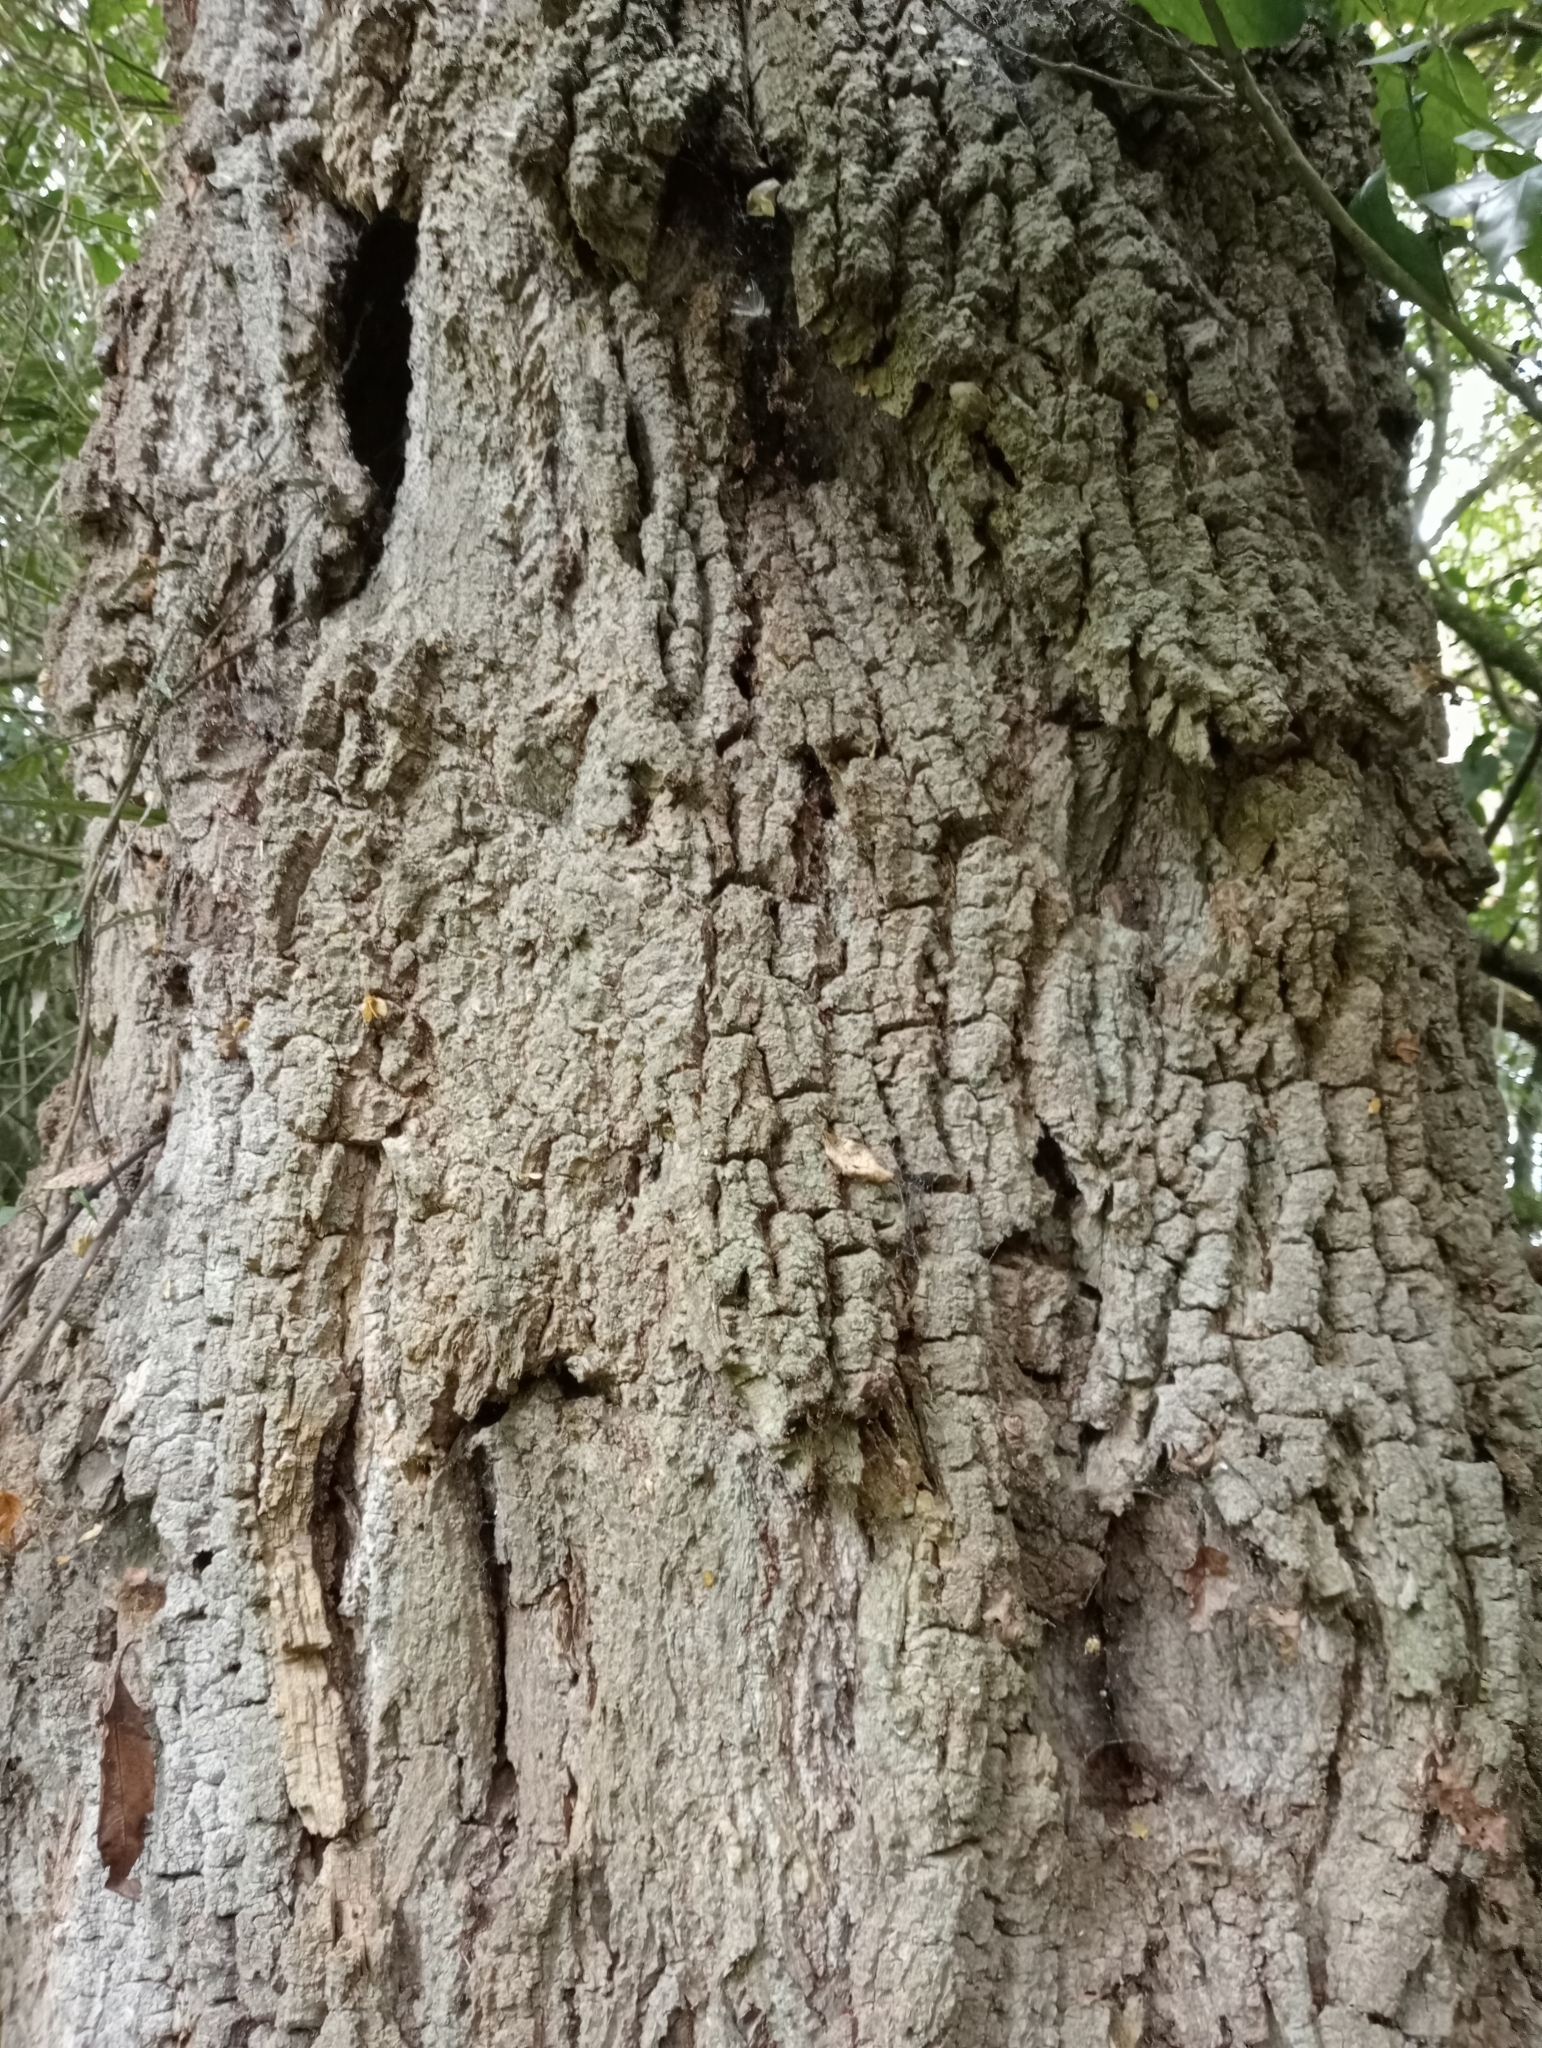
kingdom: Plantae
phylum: Tracheophyta
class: Magnoliopsida
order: Malvales
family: Malvaceae
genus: Plagianthus
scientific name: Plagianthus regius
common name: Manatu
